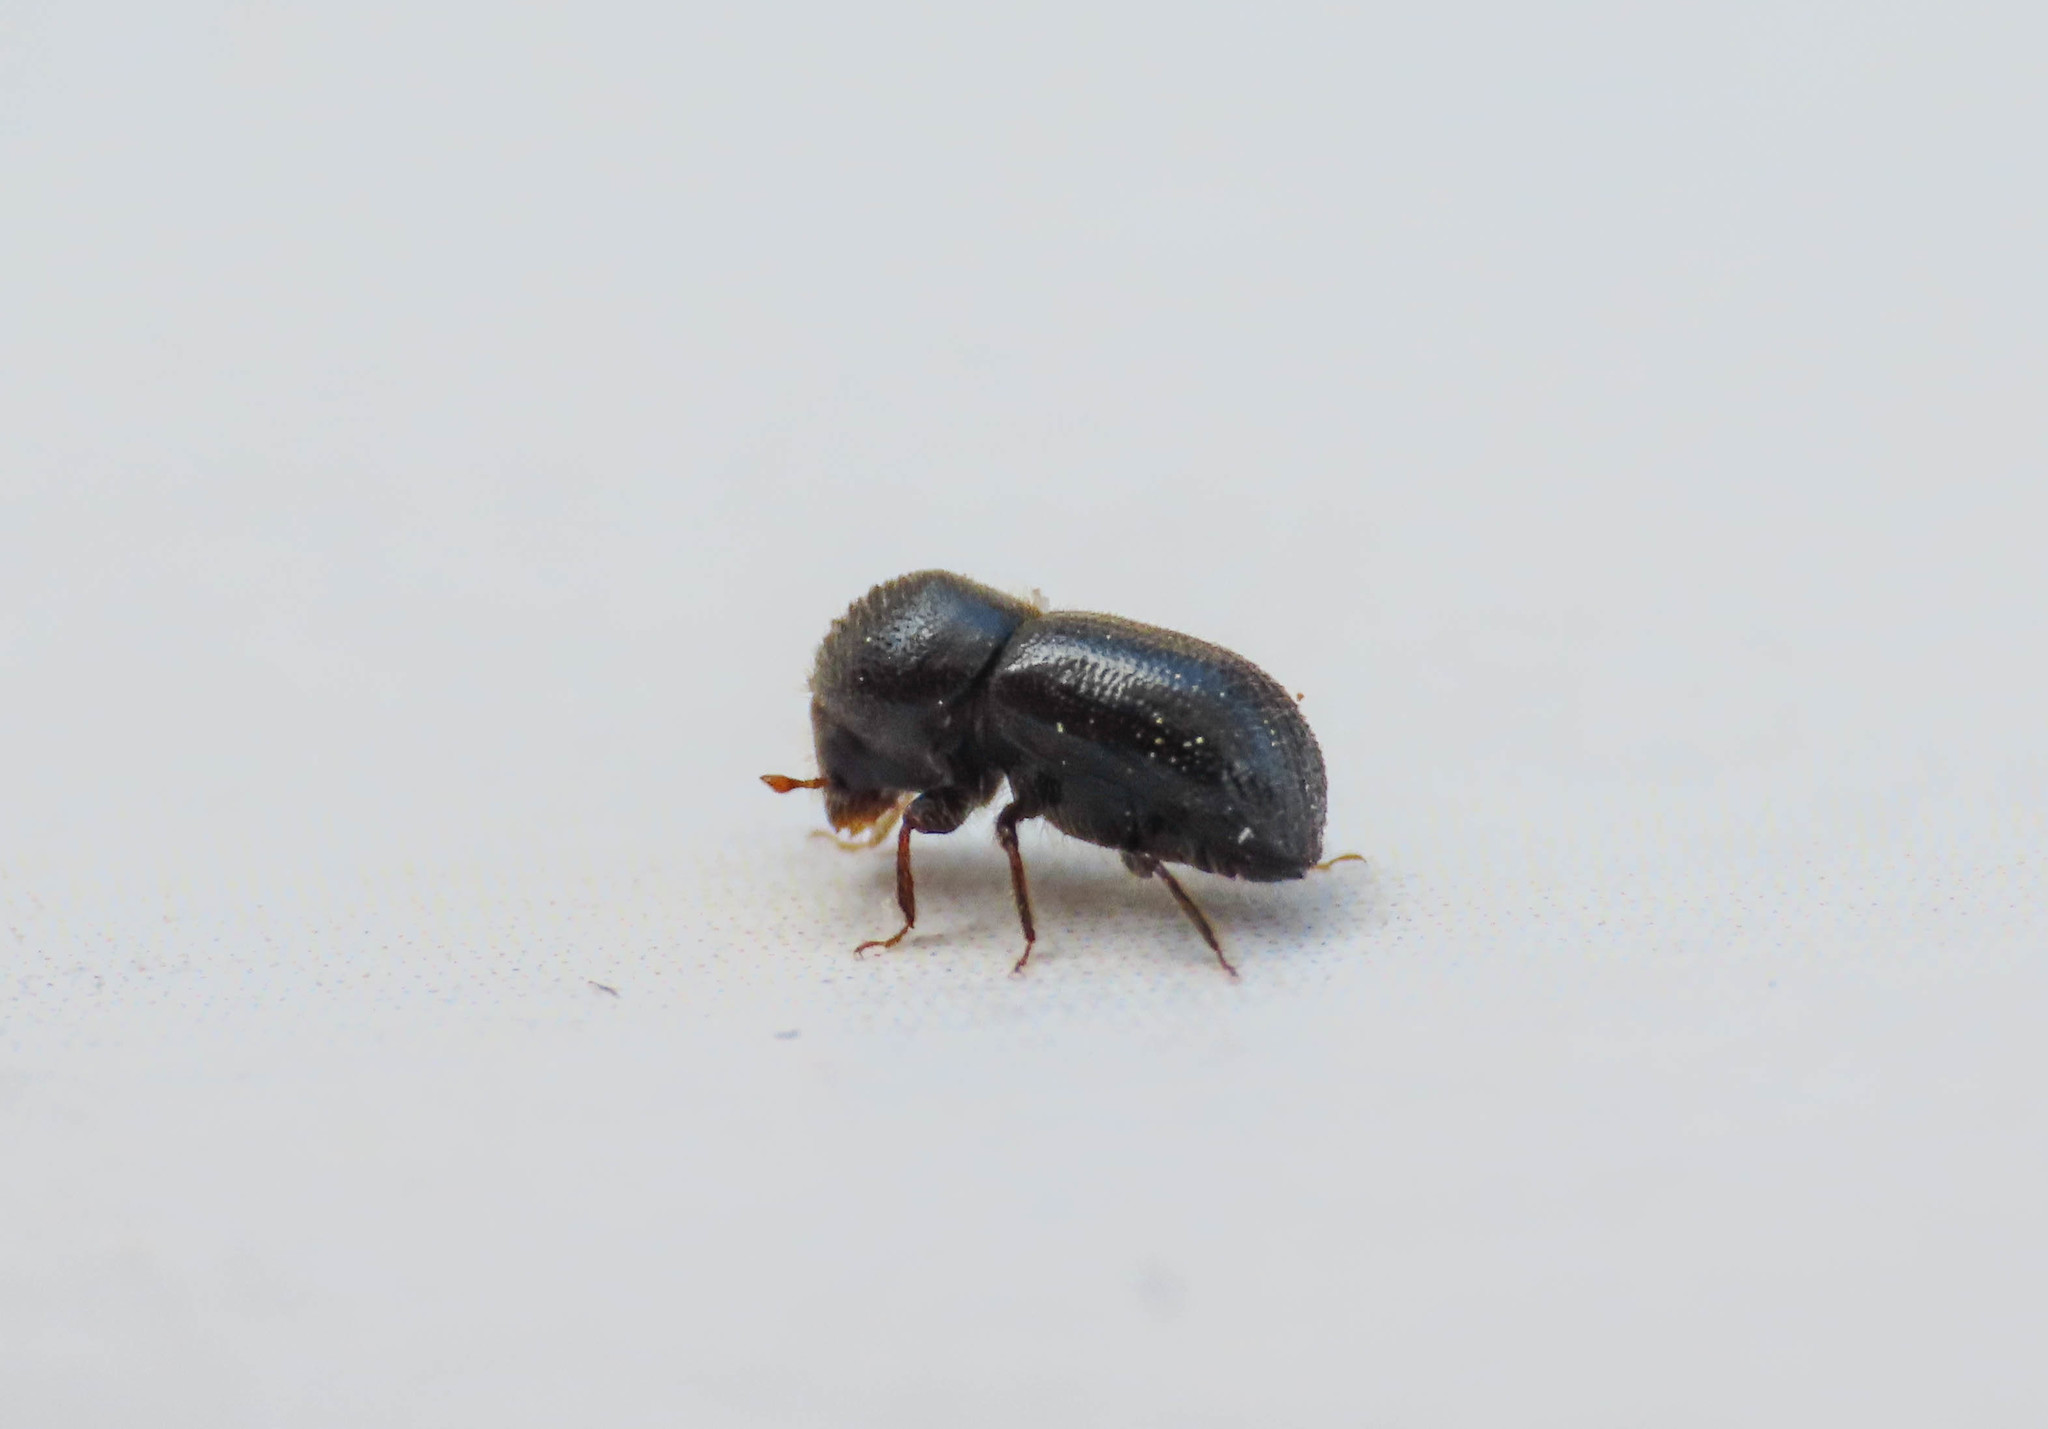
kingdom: Animalia
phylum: Arthropoda
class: Insecta
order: Coleoptera
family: Curculionidae
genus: Anisandrus
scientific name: Anisandrus dispar
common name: European shothole borer
